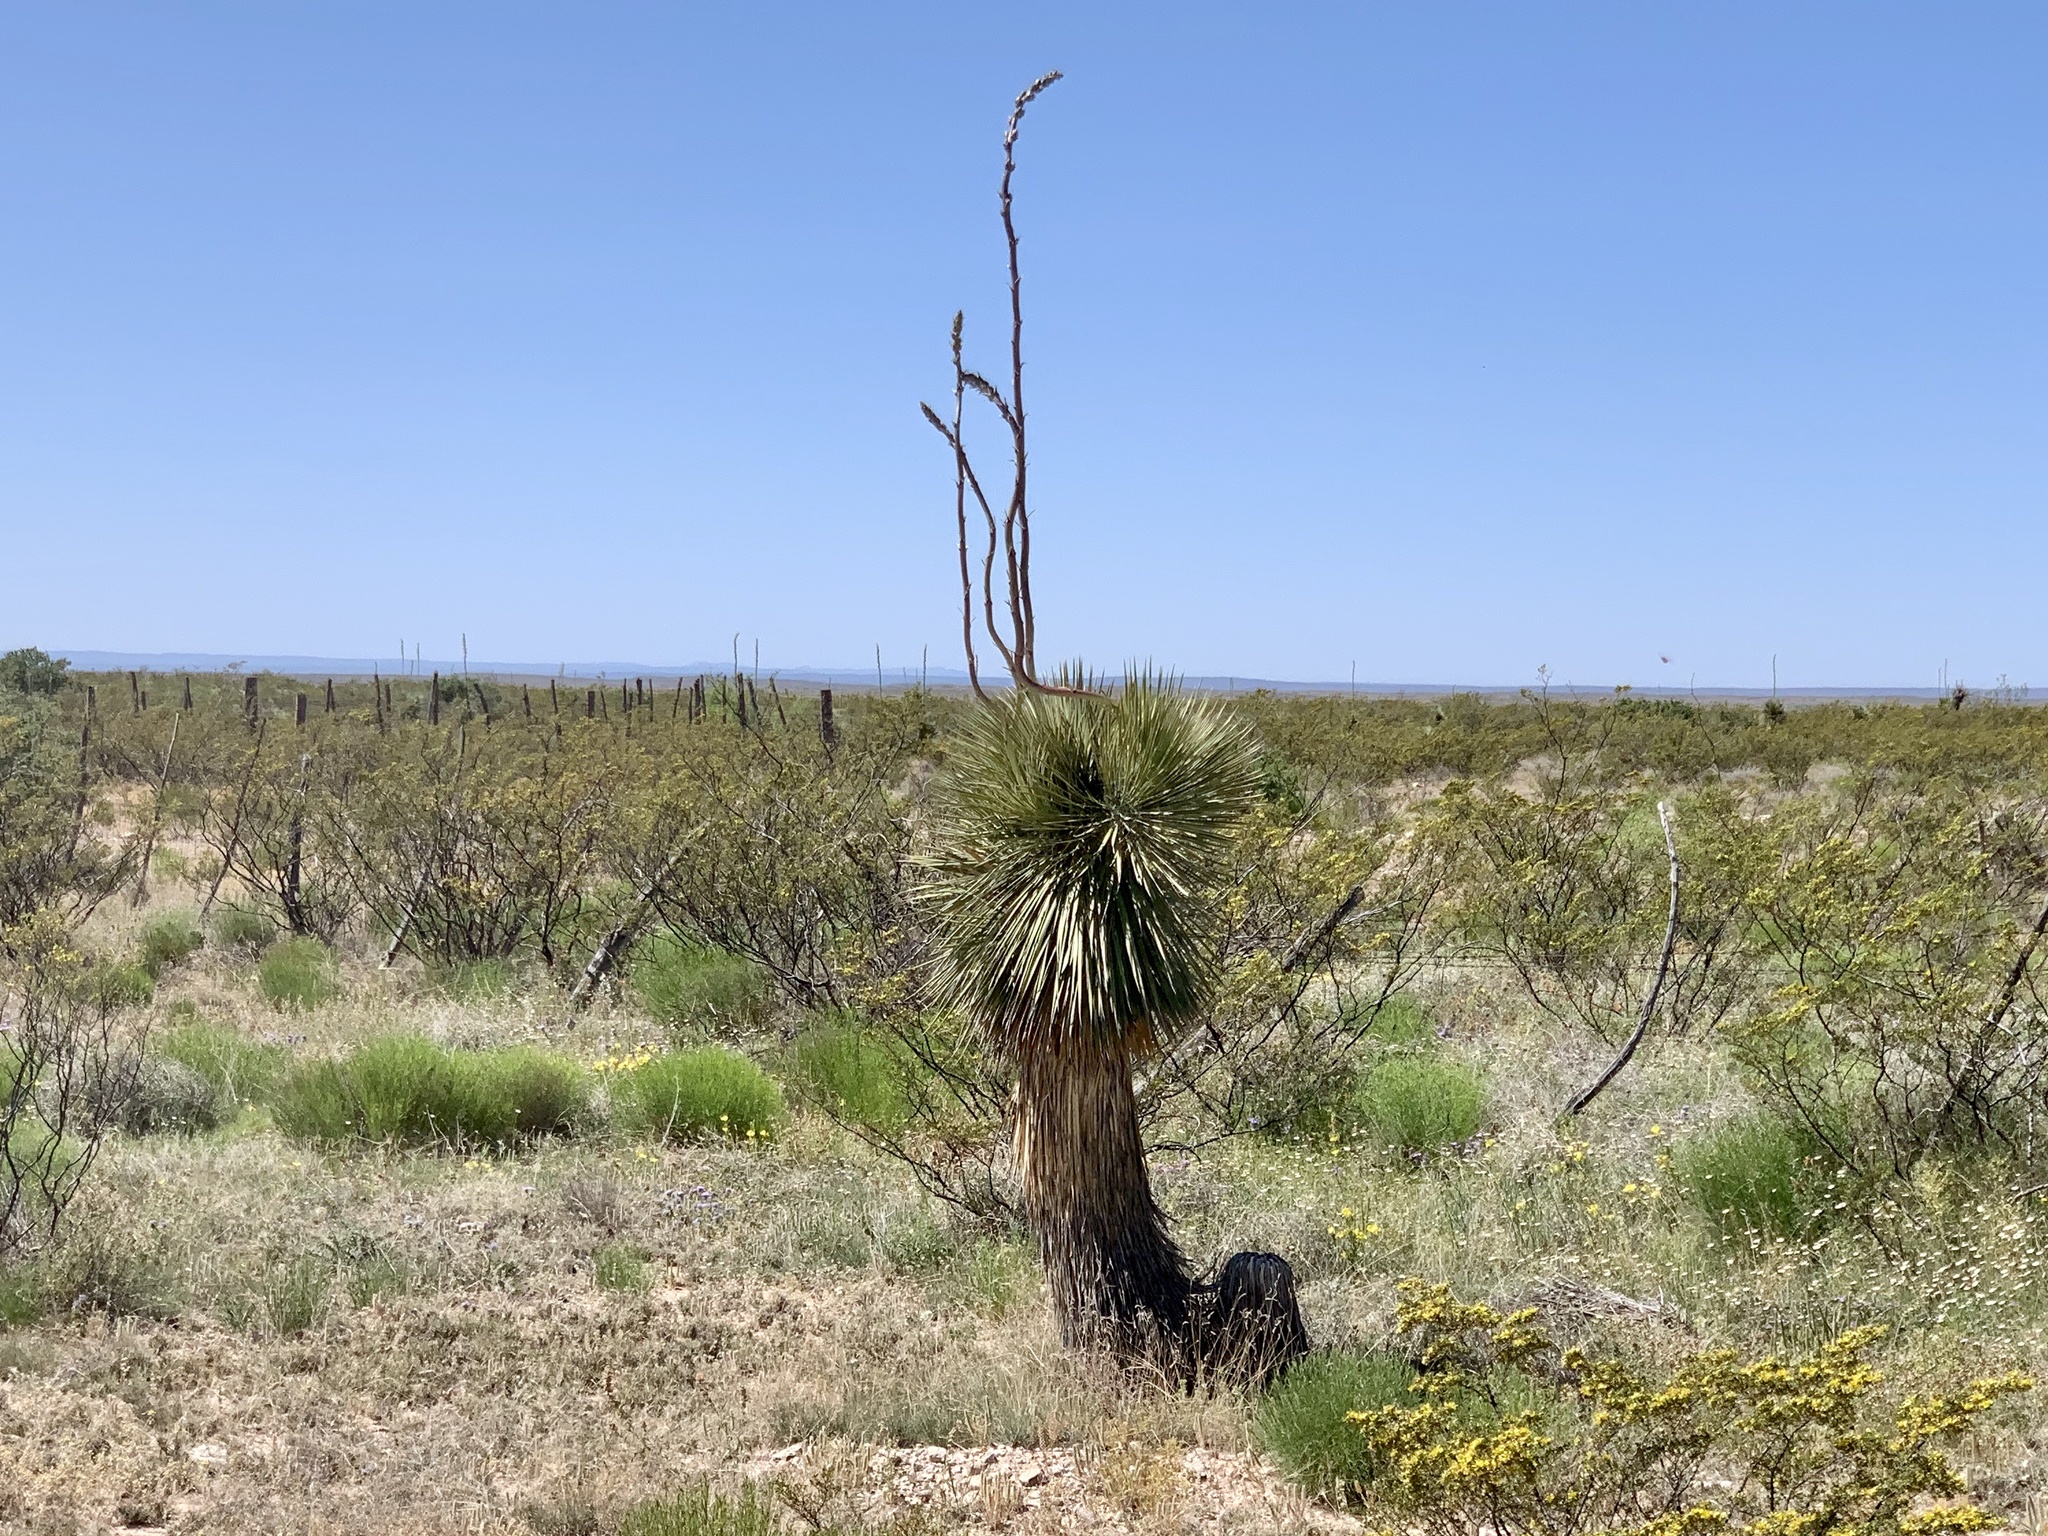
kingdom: Plantae
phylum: Tracheophyta
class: Liliopsida
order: Asparagales
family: Asparagaceae
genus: Yucca
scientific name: Yucca elata
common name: Palmella
